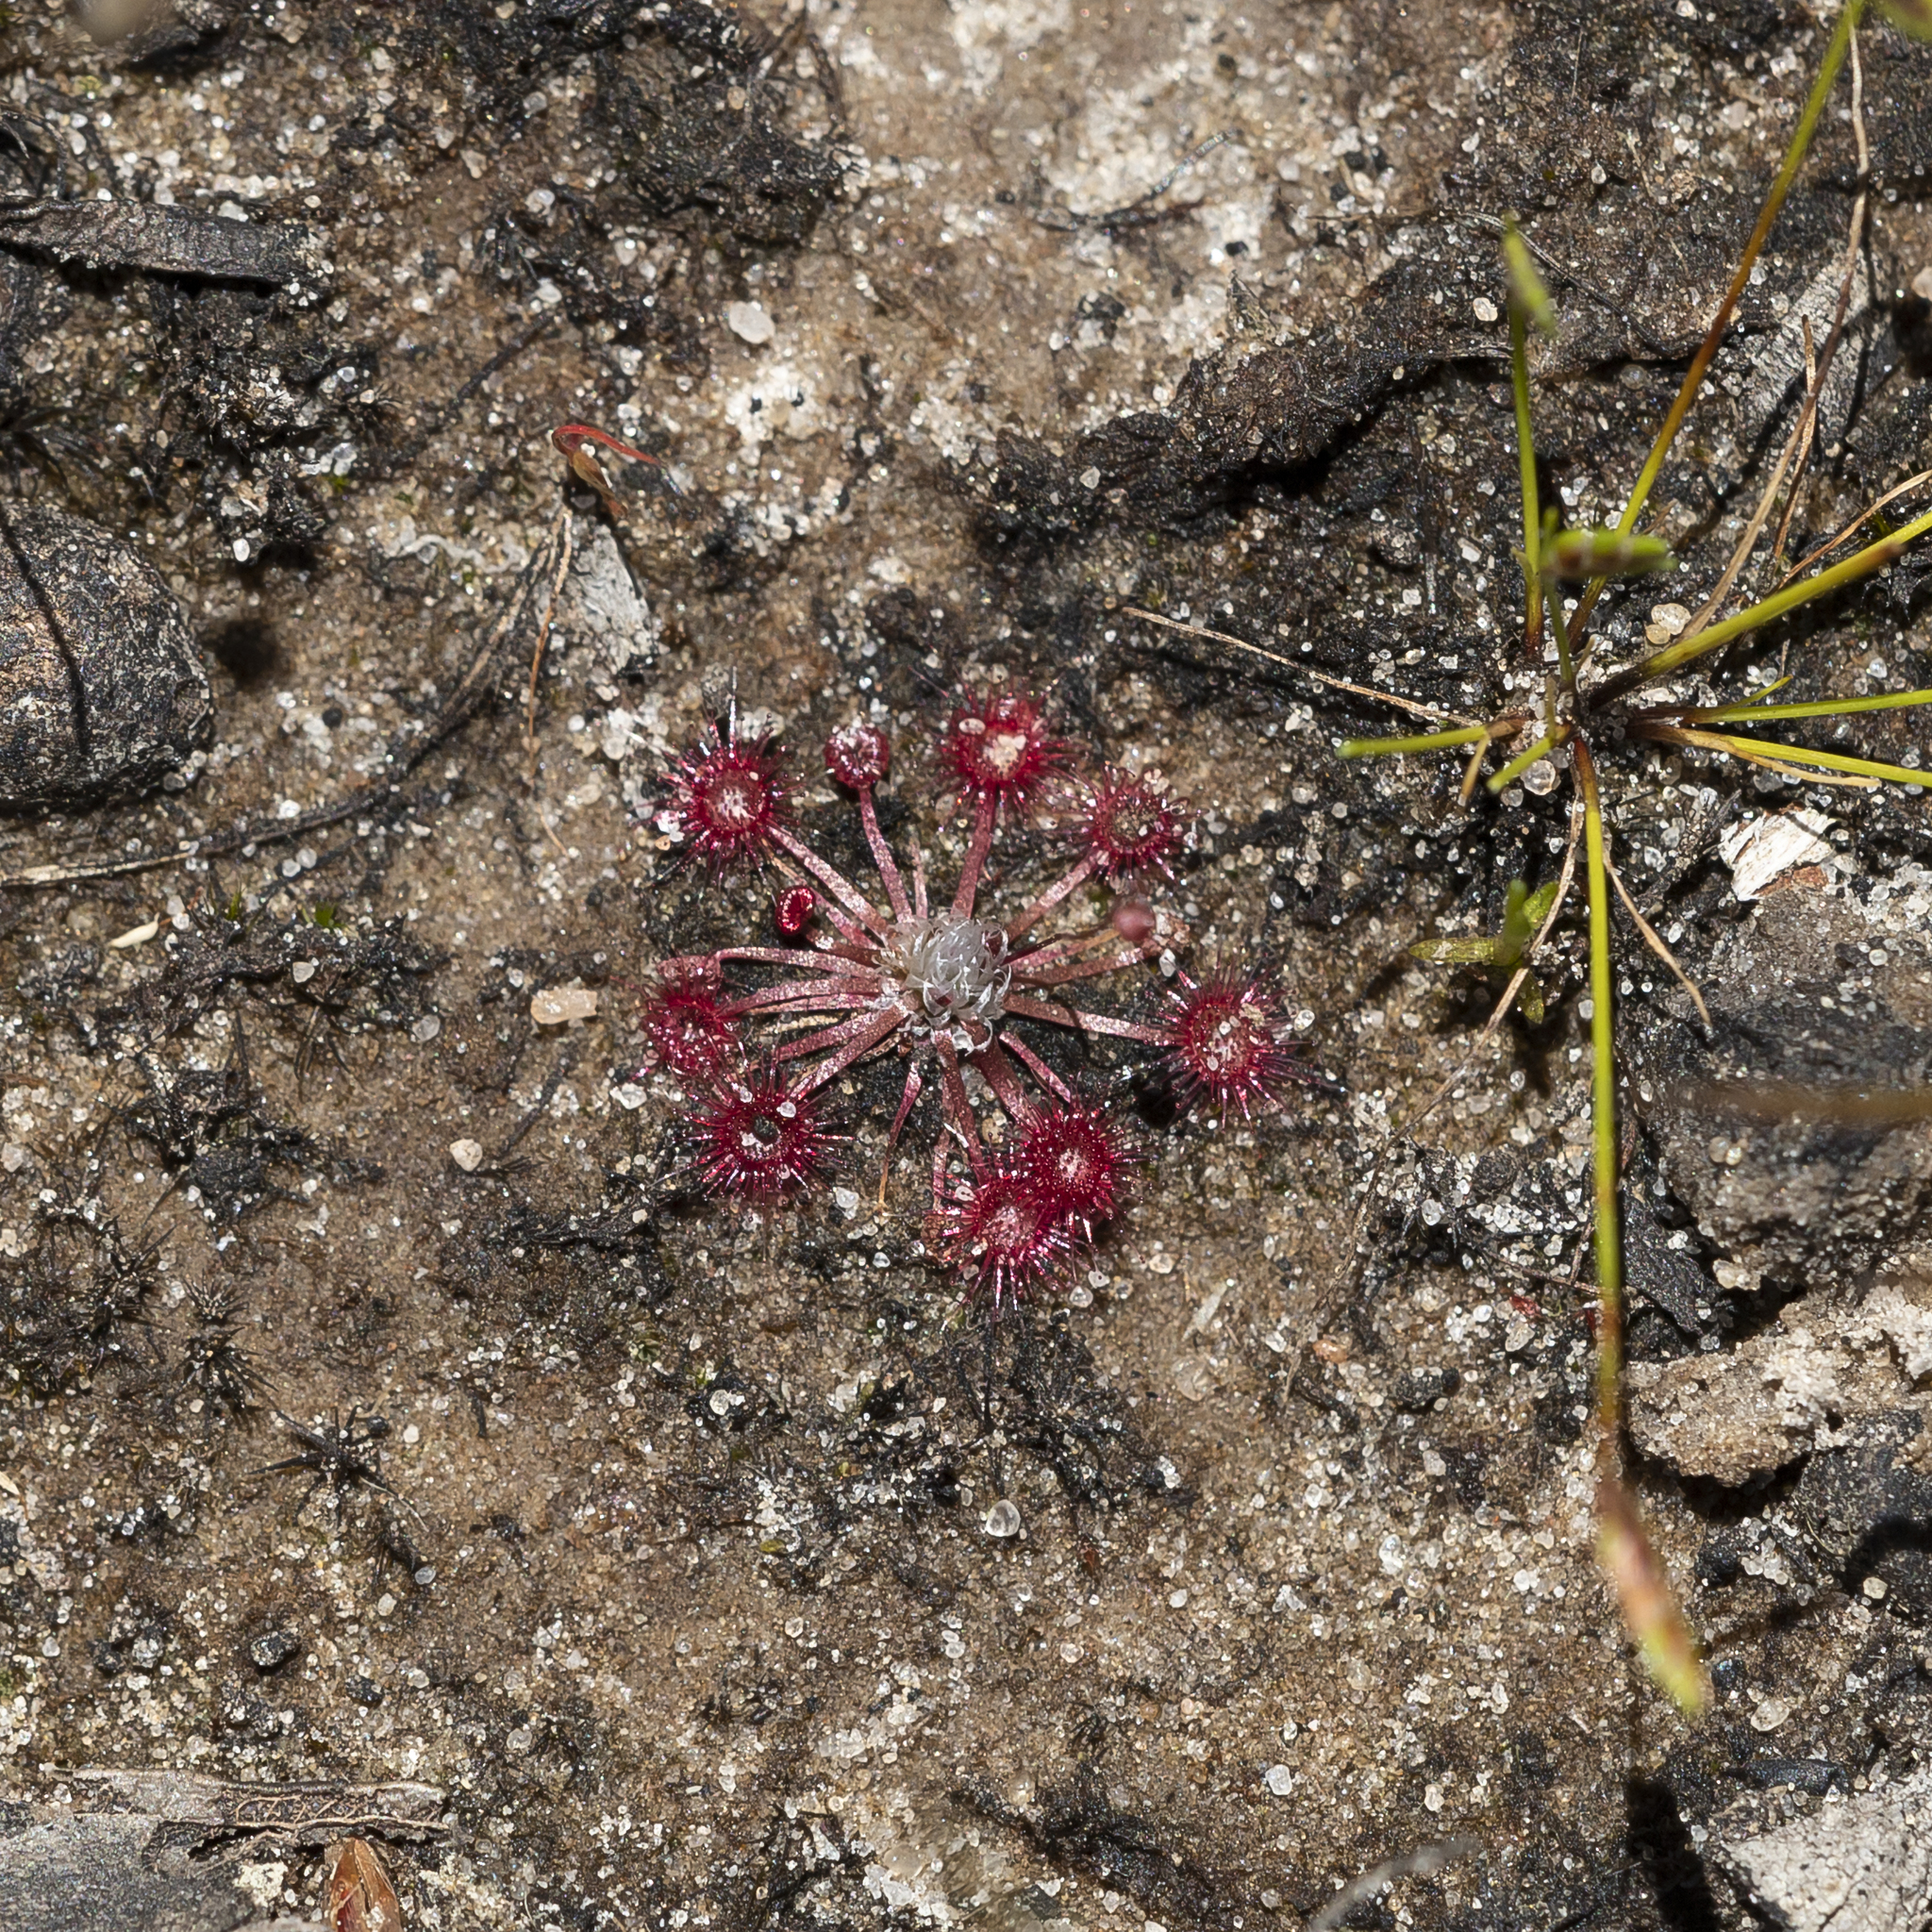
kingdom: Plantae
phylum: Tracheophyta
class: Magnoliopsida
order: Caryophyllales
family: Droseraceae
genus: Drosera
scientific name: Drosera pygmaea
